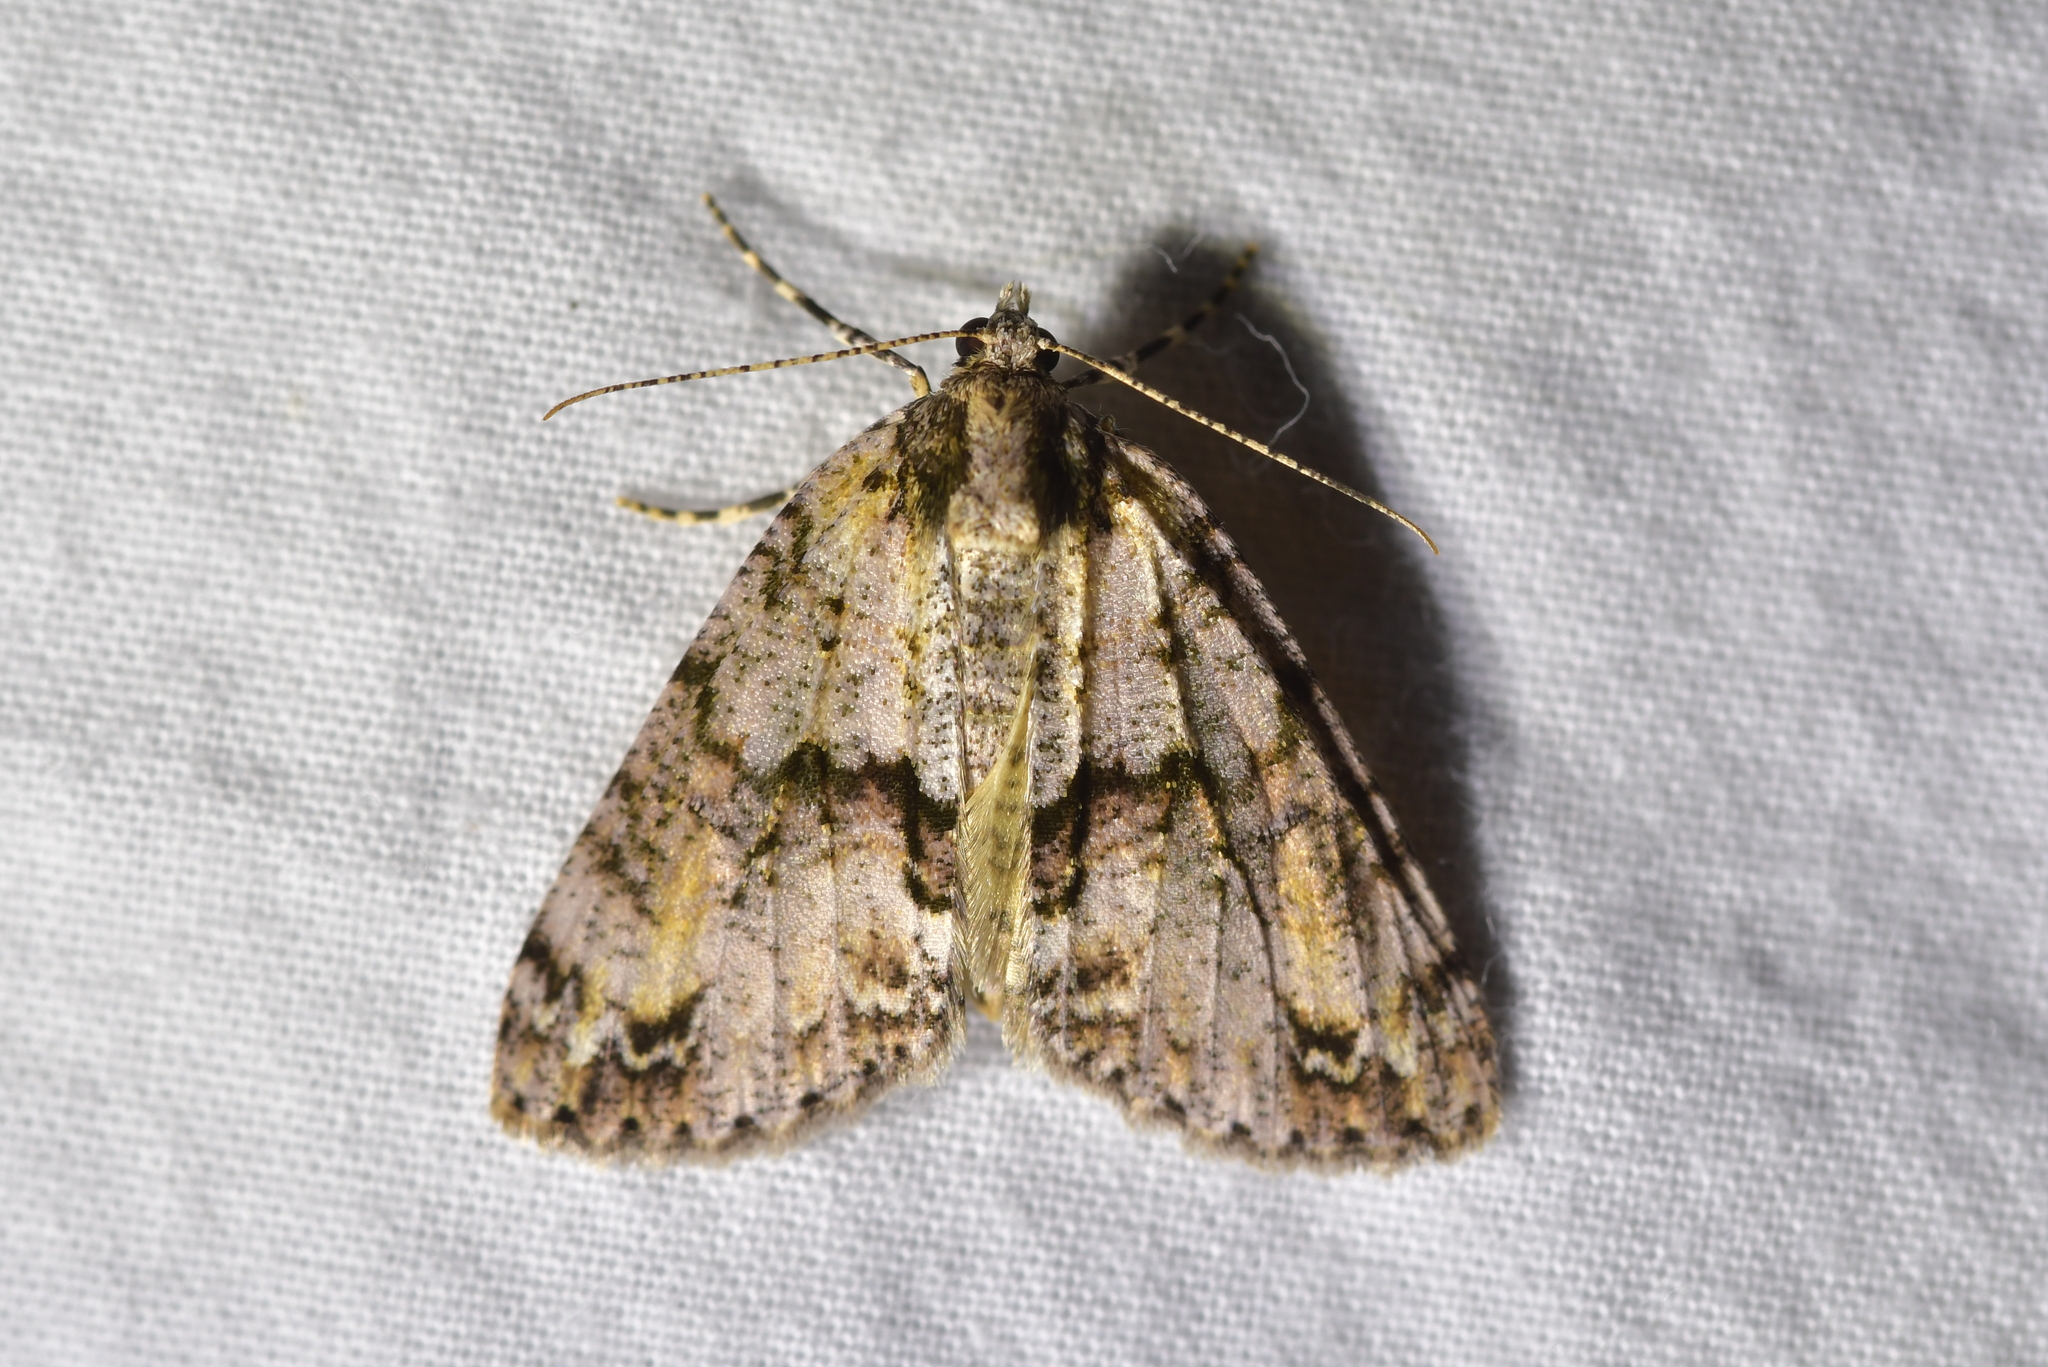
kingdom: Animalia
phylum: Arthropoda
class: Insecta
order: Lepidoptera
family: Geometridae
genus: Pseudocoremia
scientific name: Pseudocoremia suavis
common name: Common forest looper
